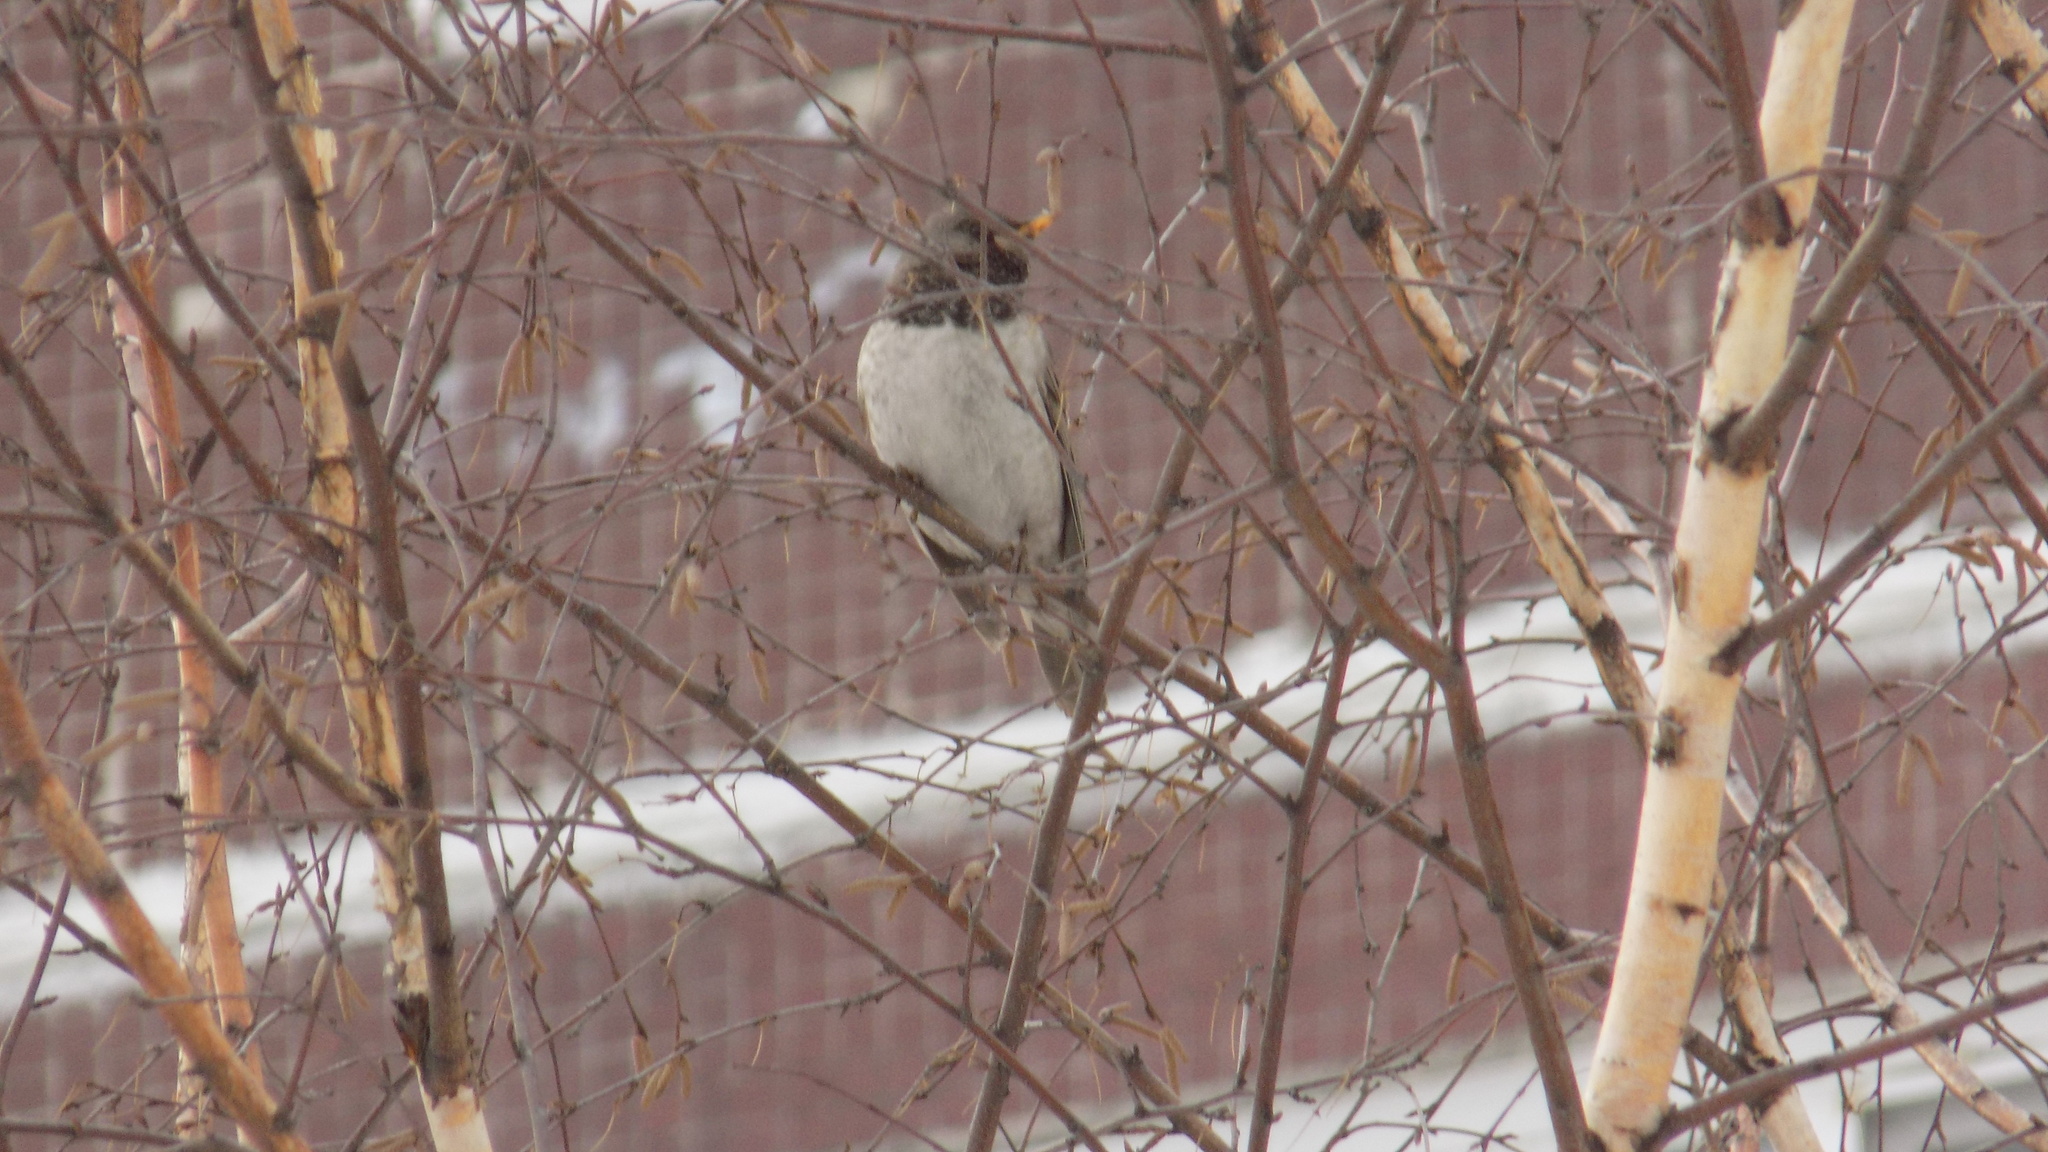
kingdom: Animalia
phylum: Chordata
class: Aves
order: Passeriformes
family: Turdidae
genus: Turdus
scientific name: Turdus atrogularis
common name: Black-throated thrush
